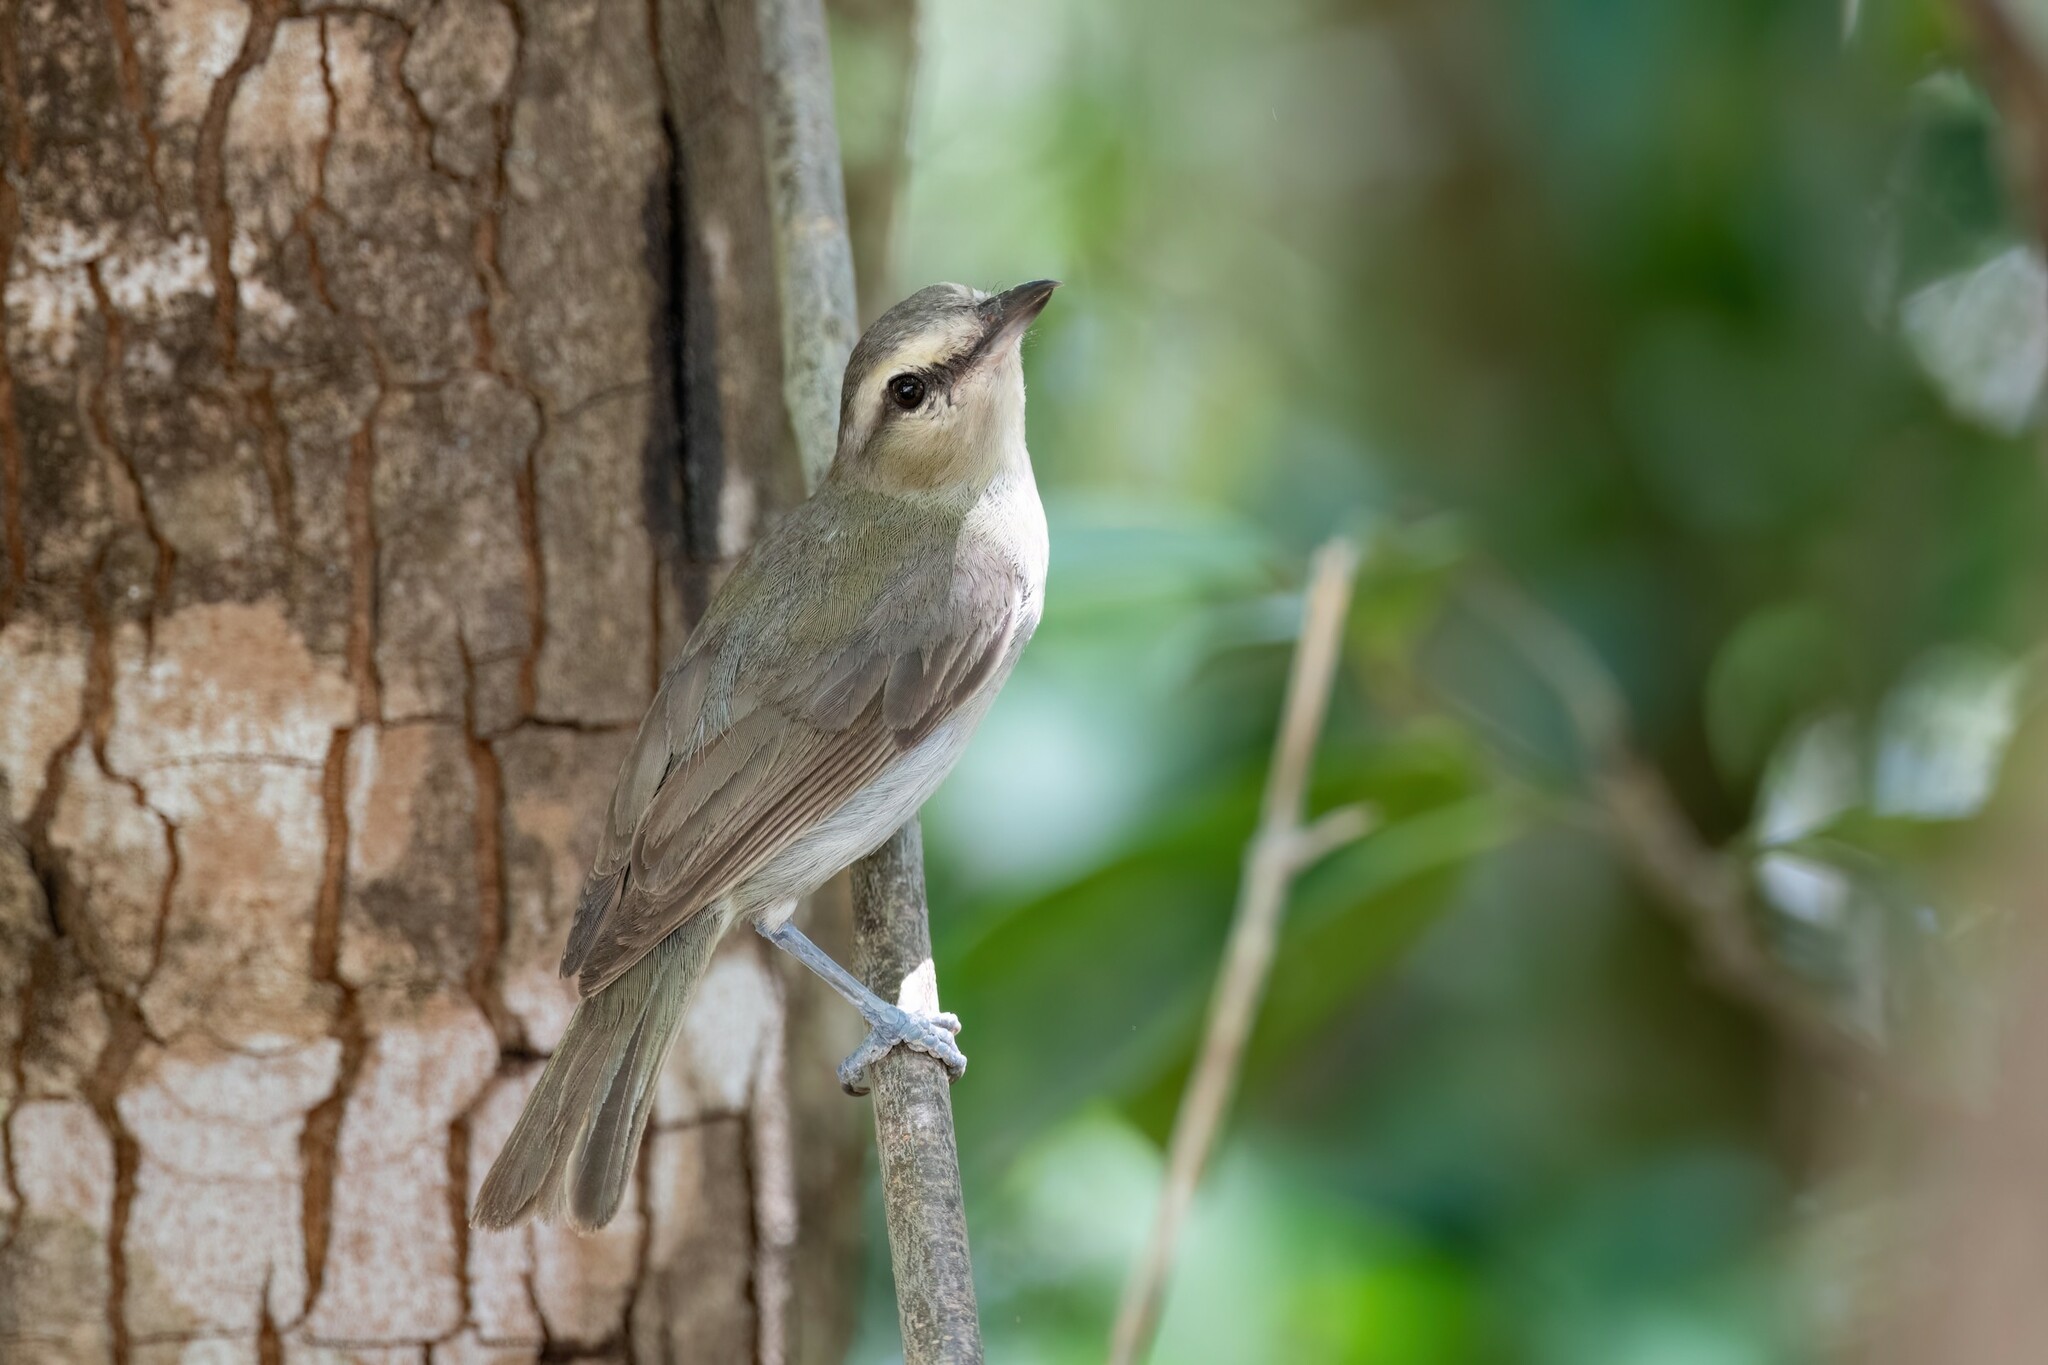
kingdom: Animalia
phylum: Chordata
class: Aves
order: Passeriformes
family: Vireonidae
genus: Vireo
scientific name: Vireo magister
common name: Yucatan vireo
